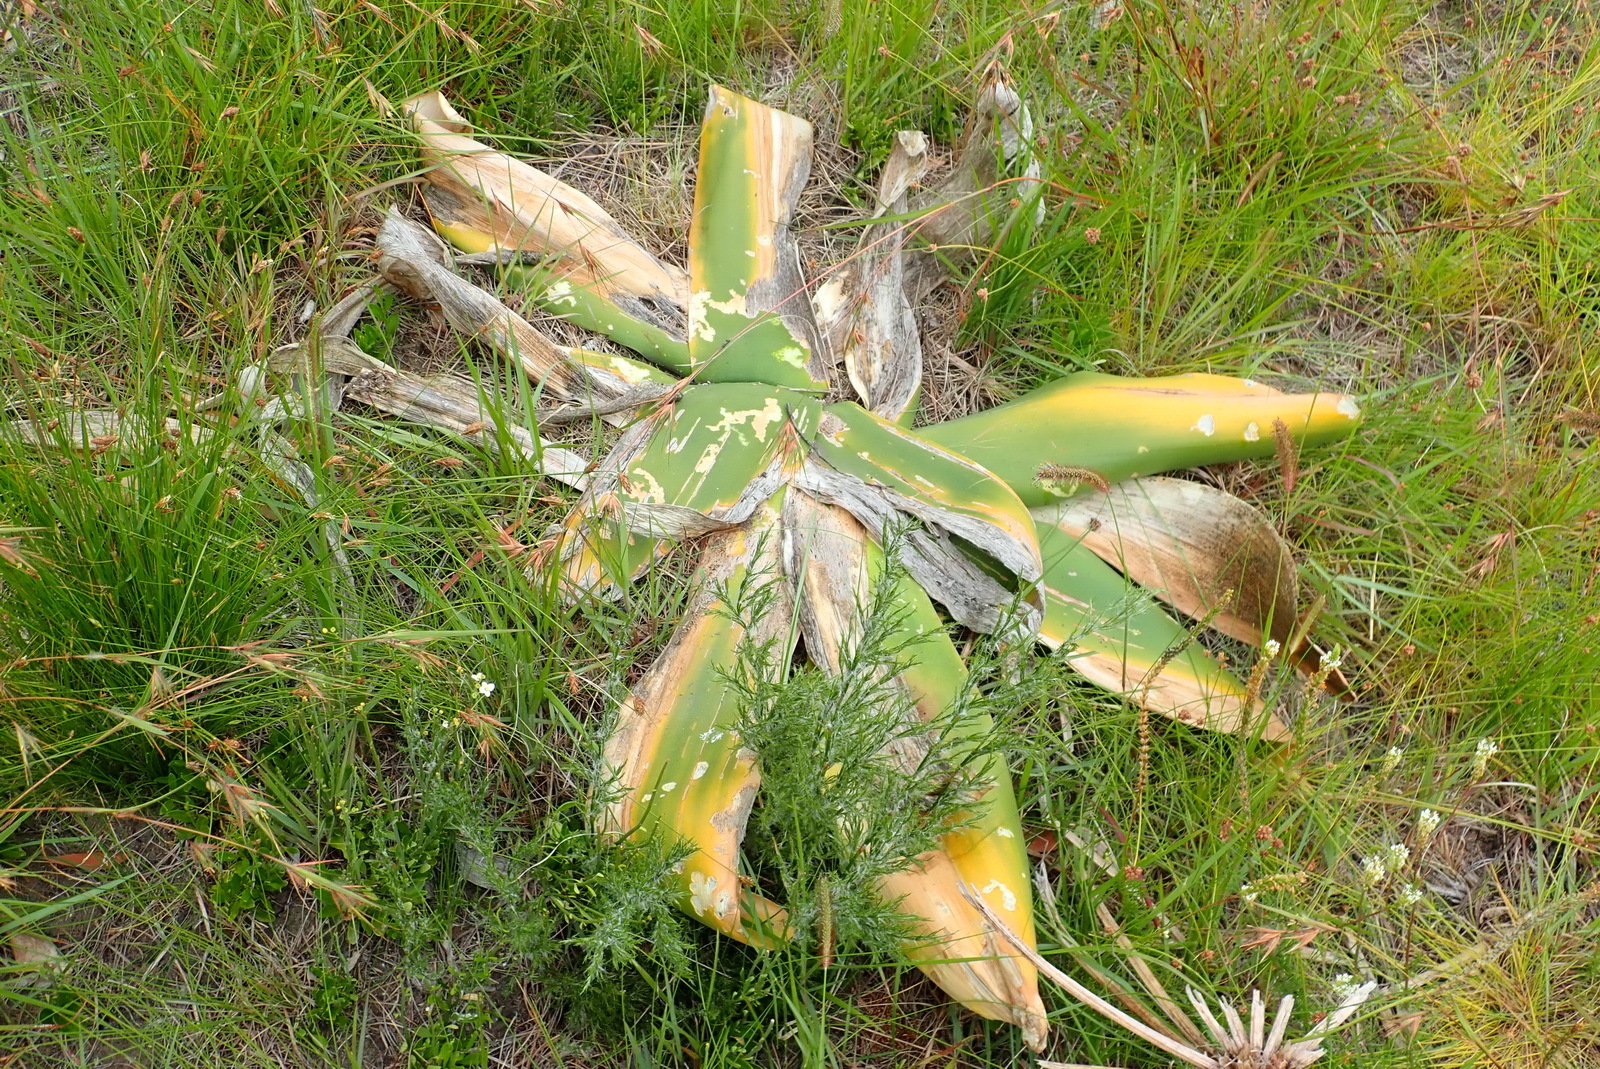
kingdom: Plantae
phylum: Tracheophyta
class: Liliopsida
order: Asparagales
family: Amaryllidaceae
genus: Brunsvigia
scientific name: Brunsvigia orientalis
